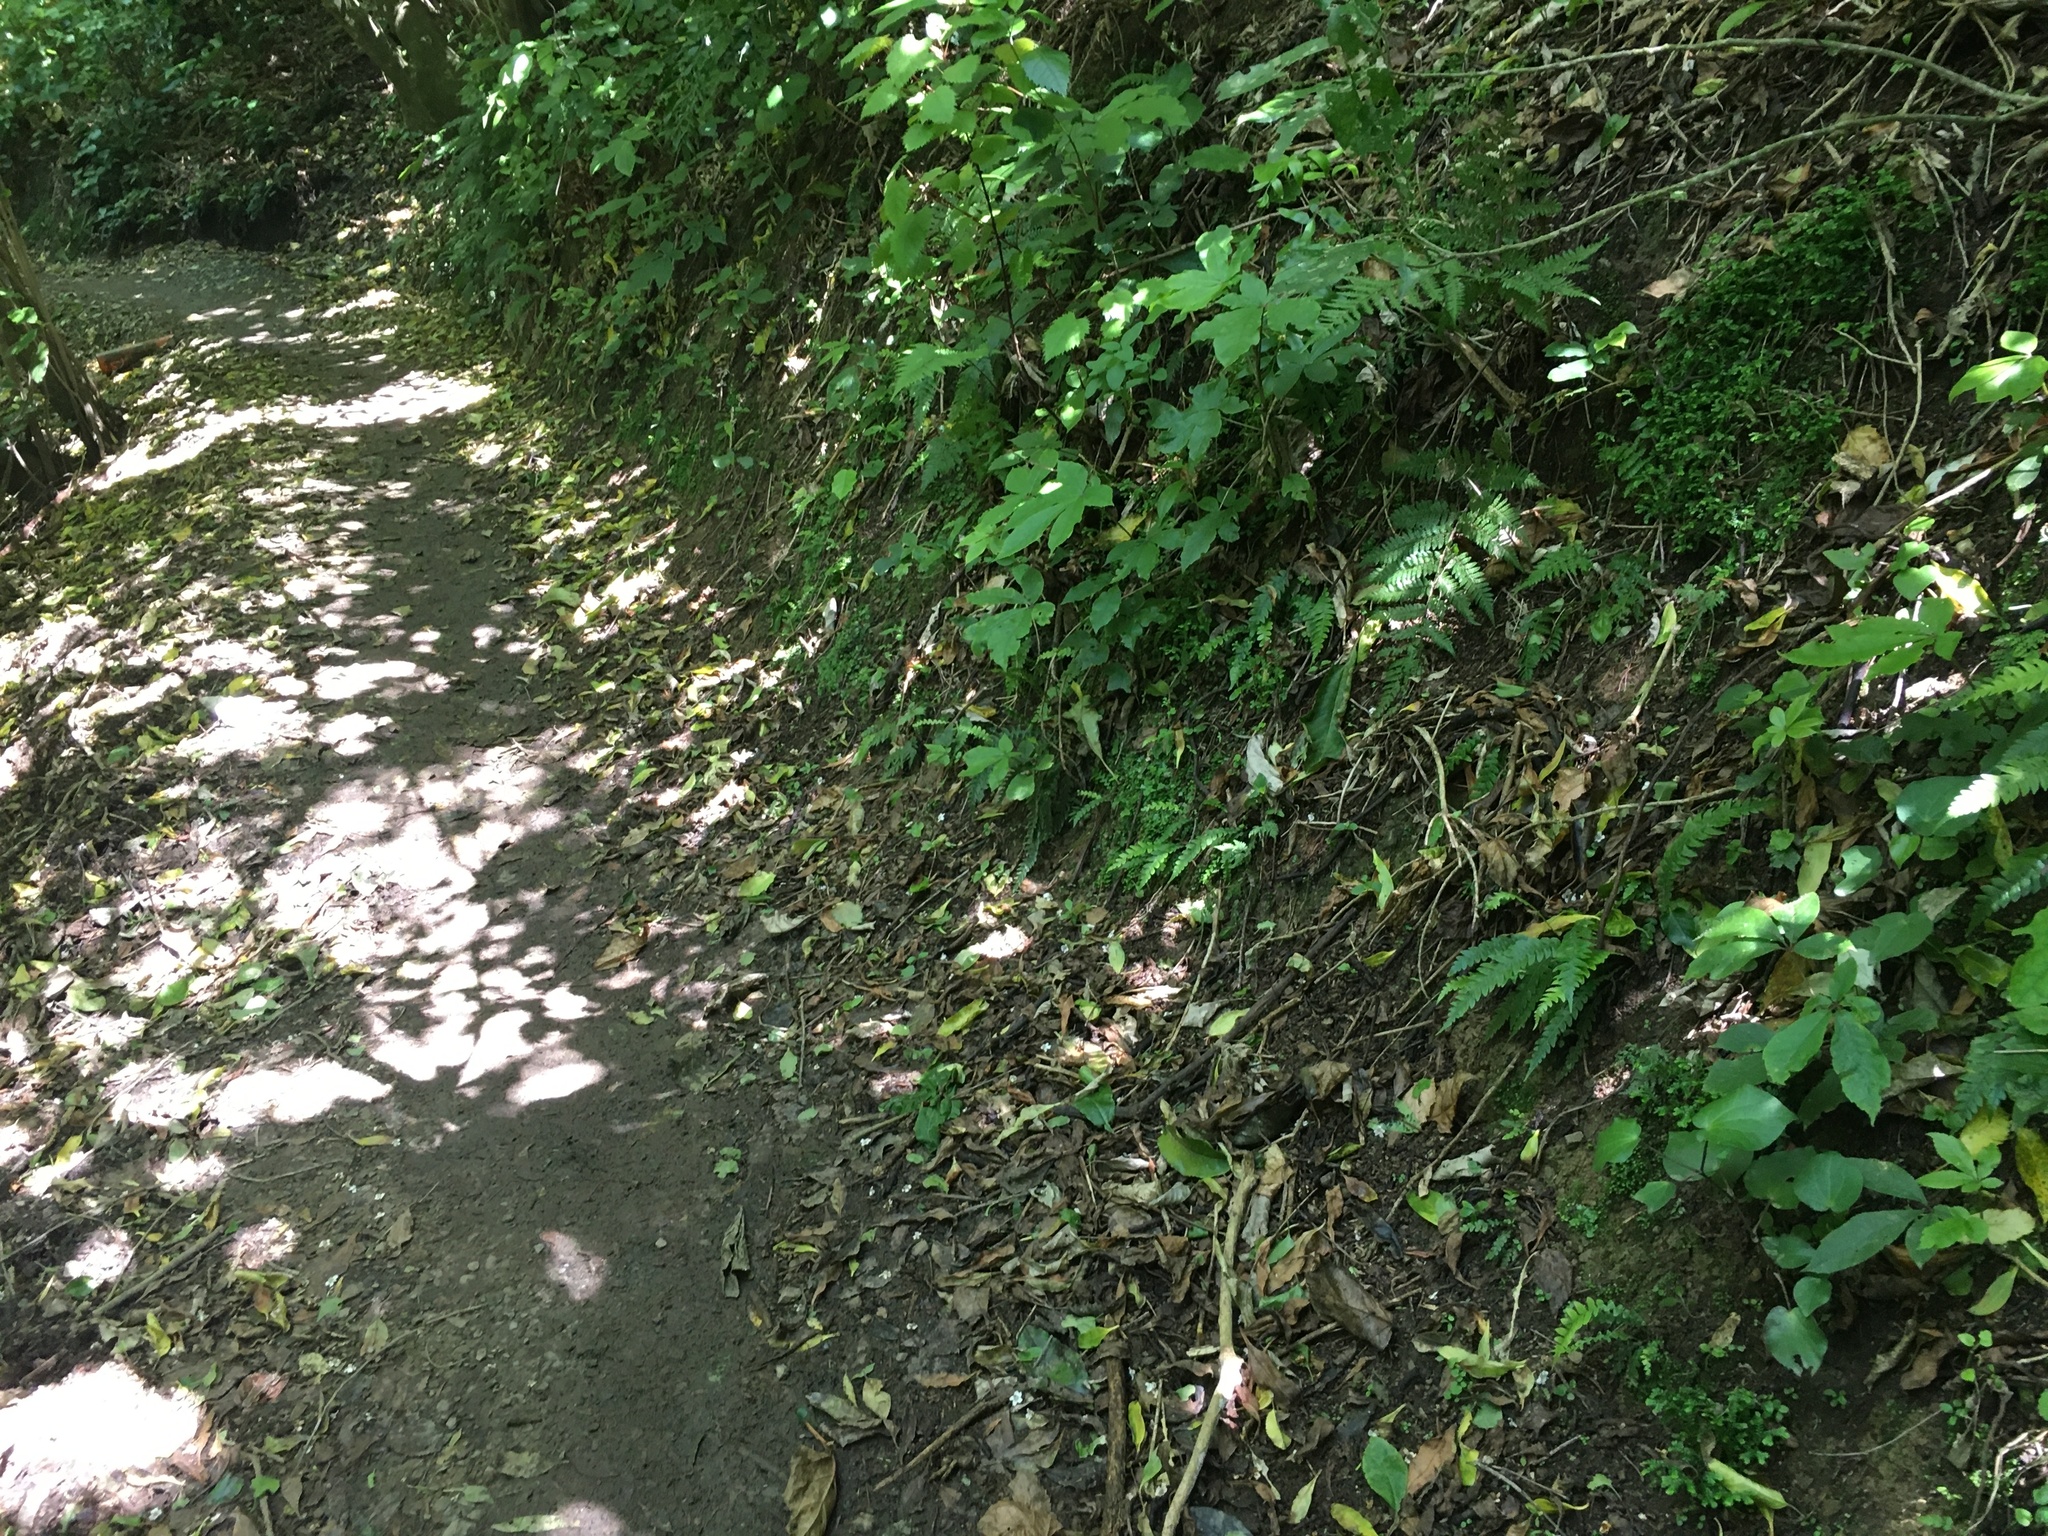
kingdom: Plantae
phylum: Tracheophyta
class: Lycopodiopsida
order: Selaginellales
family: Selaginellaceae
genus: Selaginella
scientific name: Selaginella kraussiana
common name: Krauss' spikemoss
